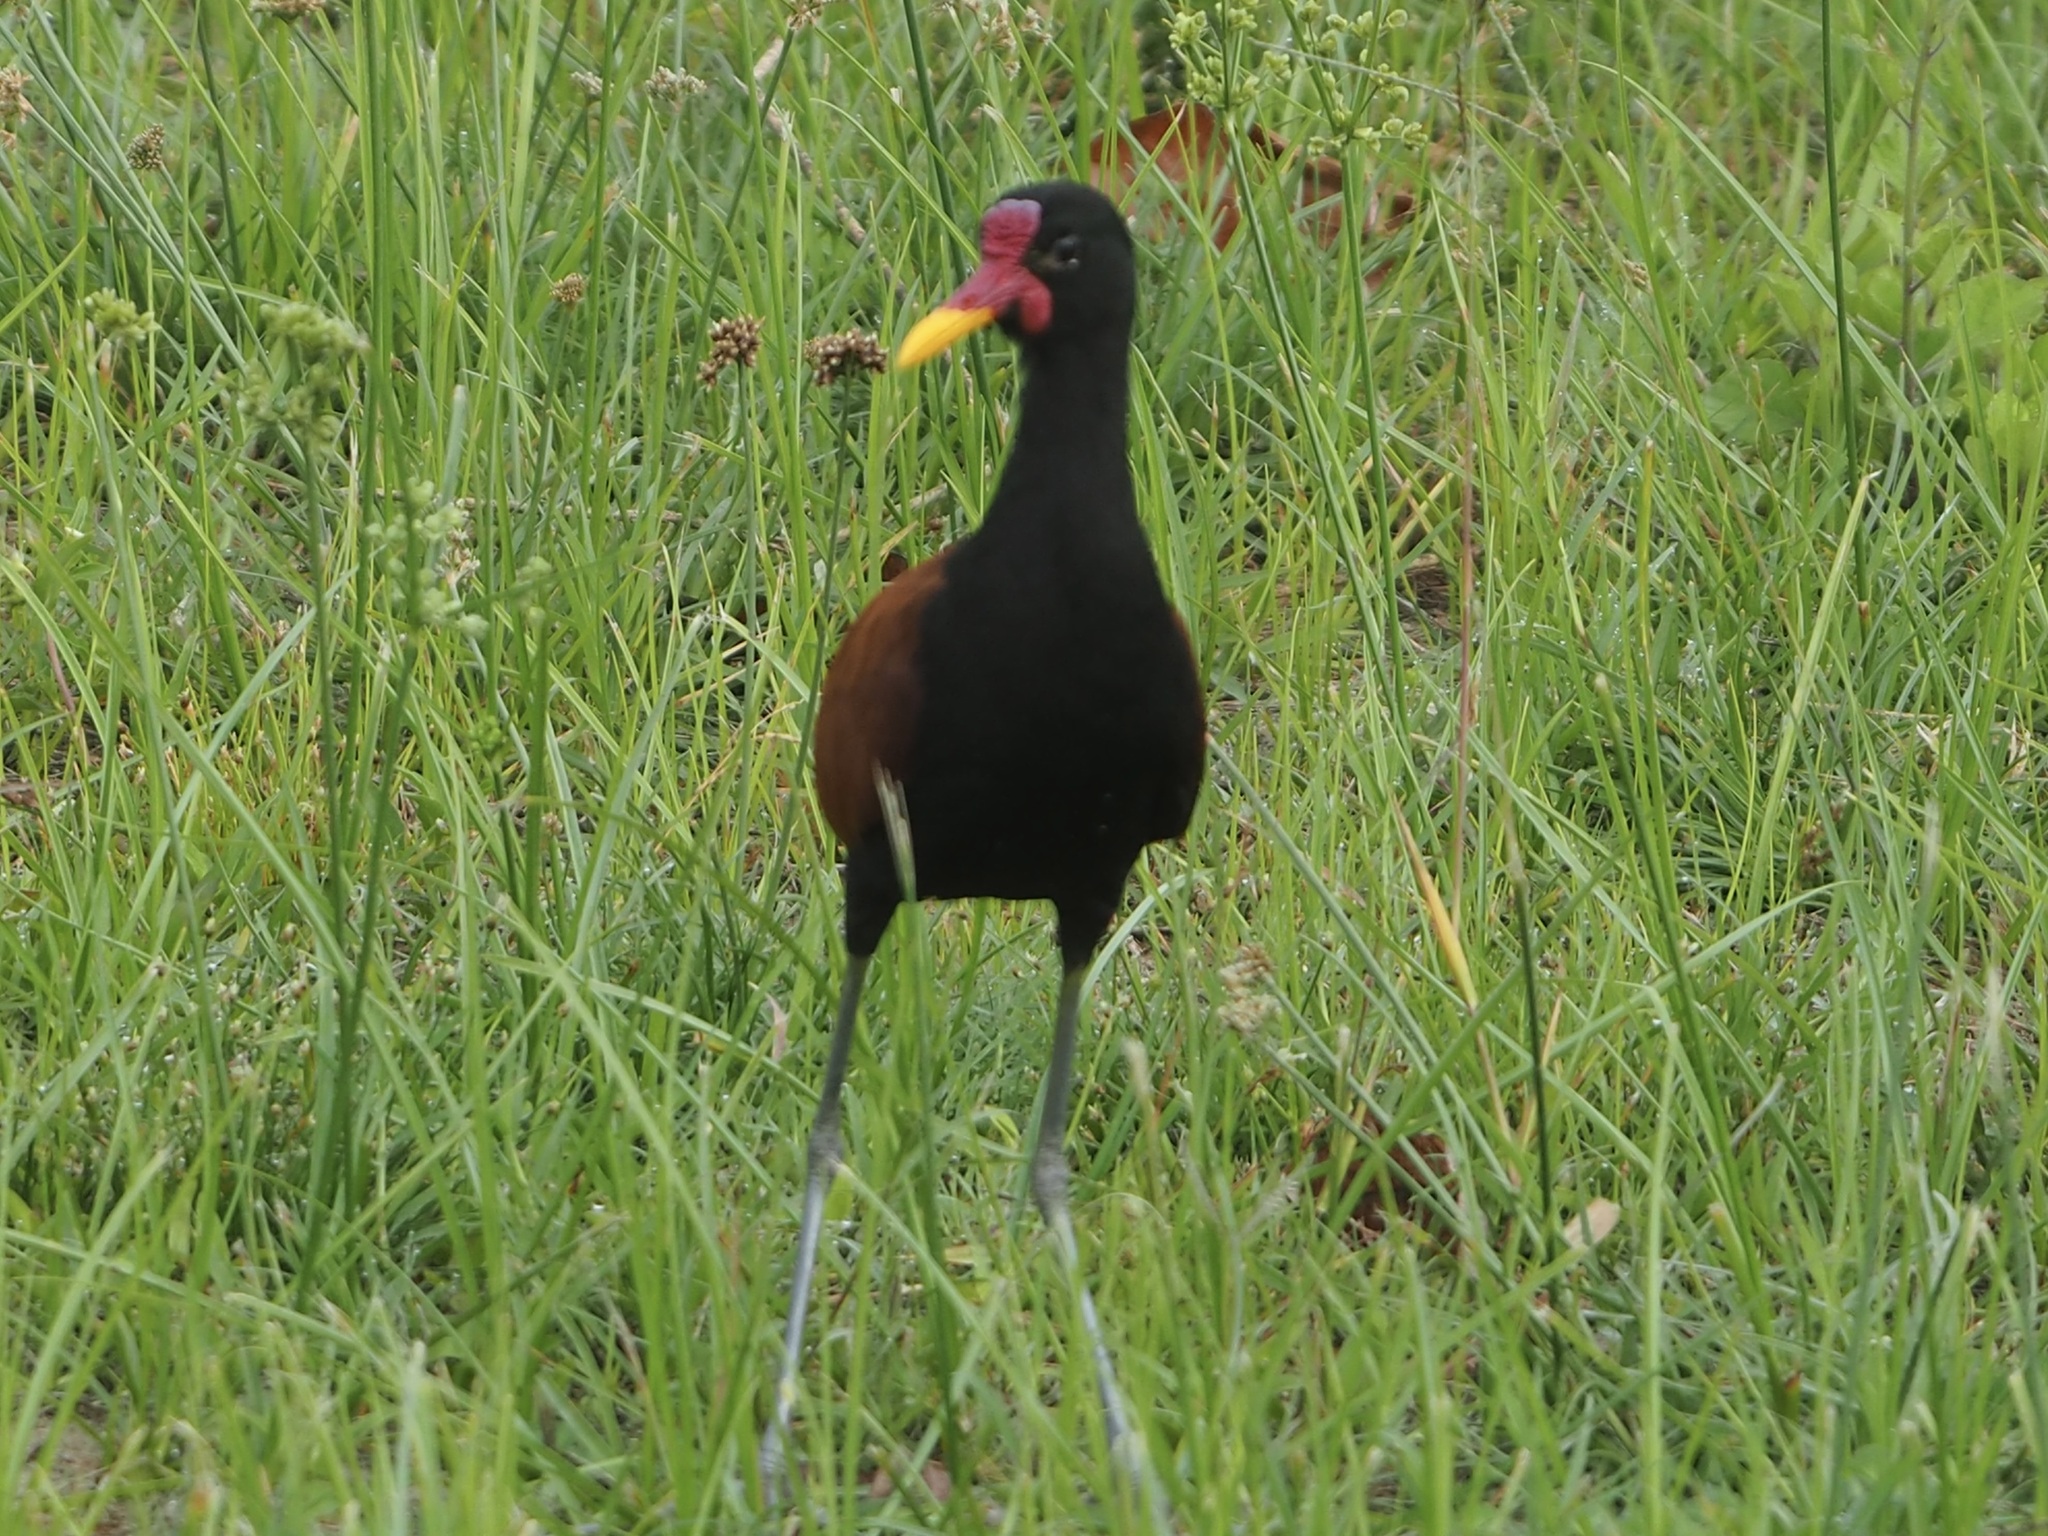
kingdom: Animalia
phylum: Chordata
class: Aves
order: Charadriiformes
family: Jacanidae
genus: Jacana
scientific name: Jacana jacana
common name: Wattled jacana
